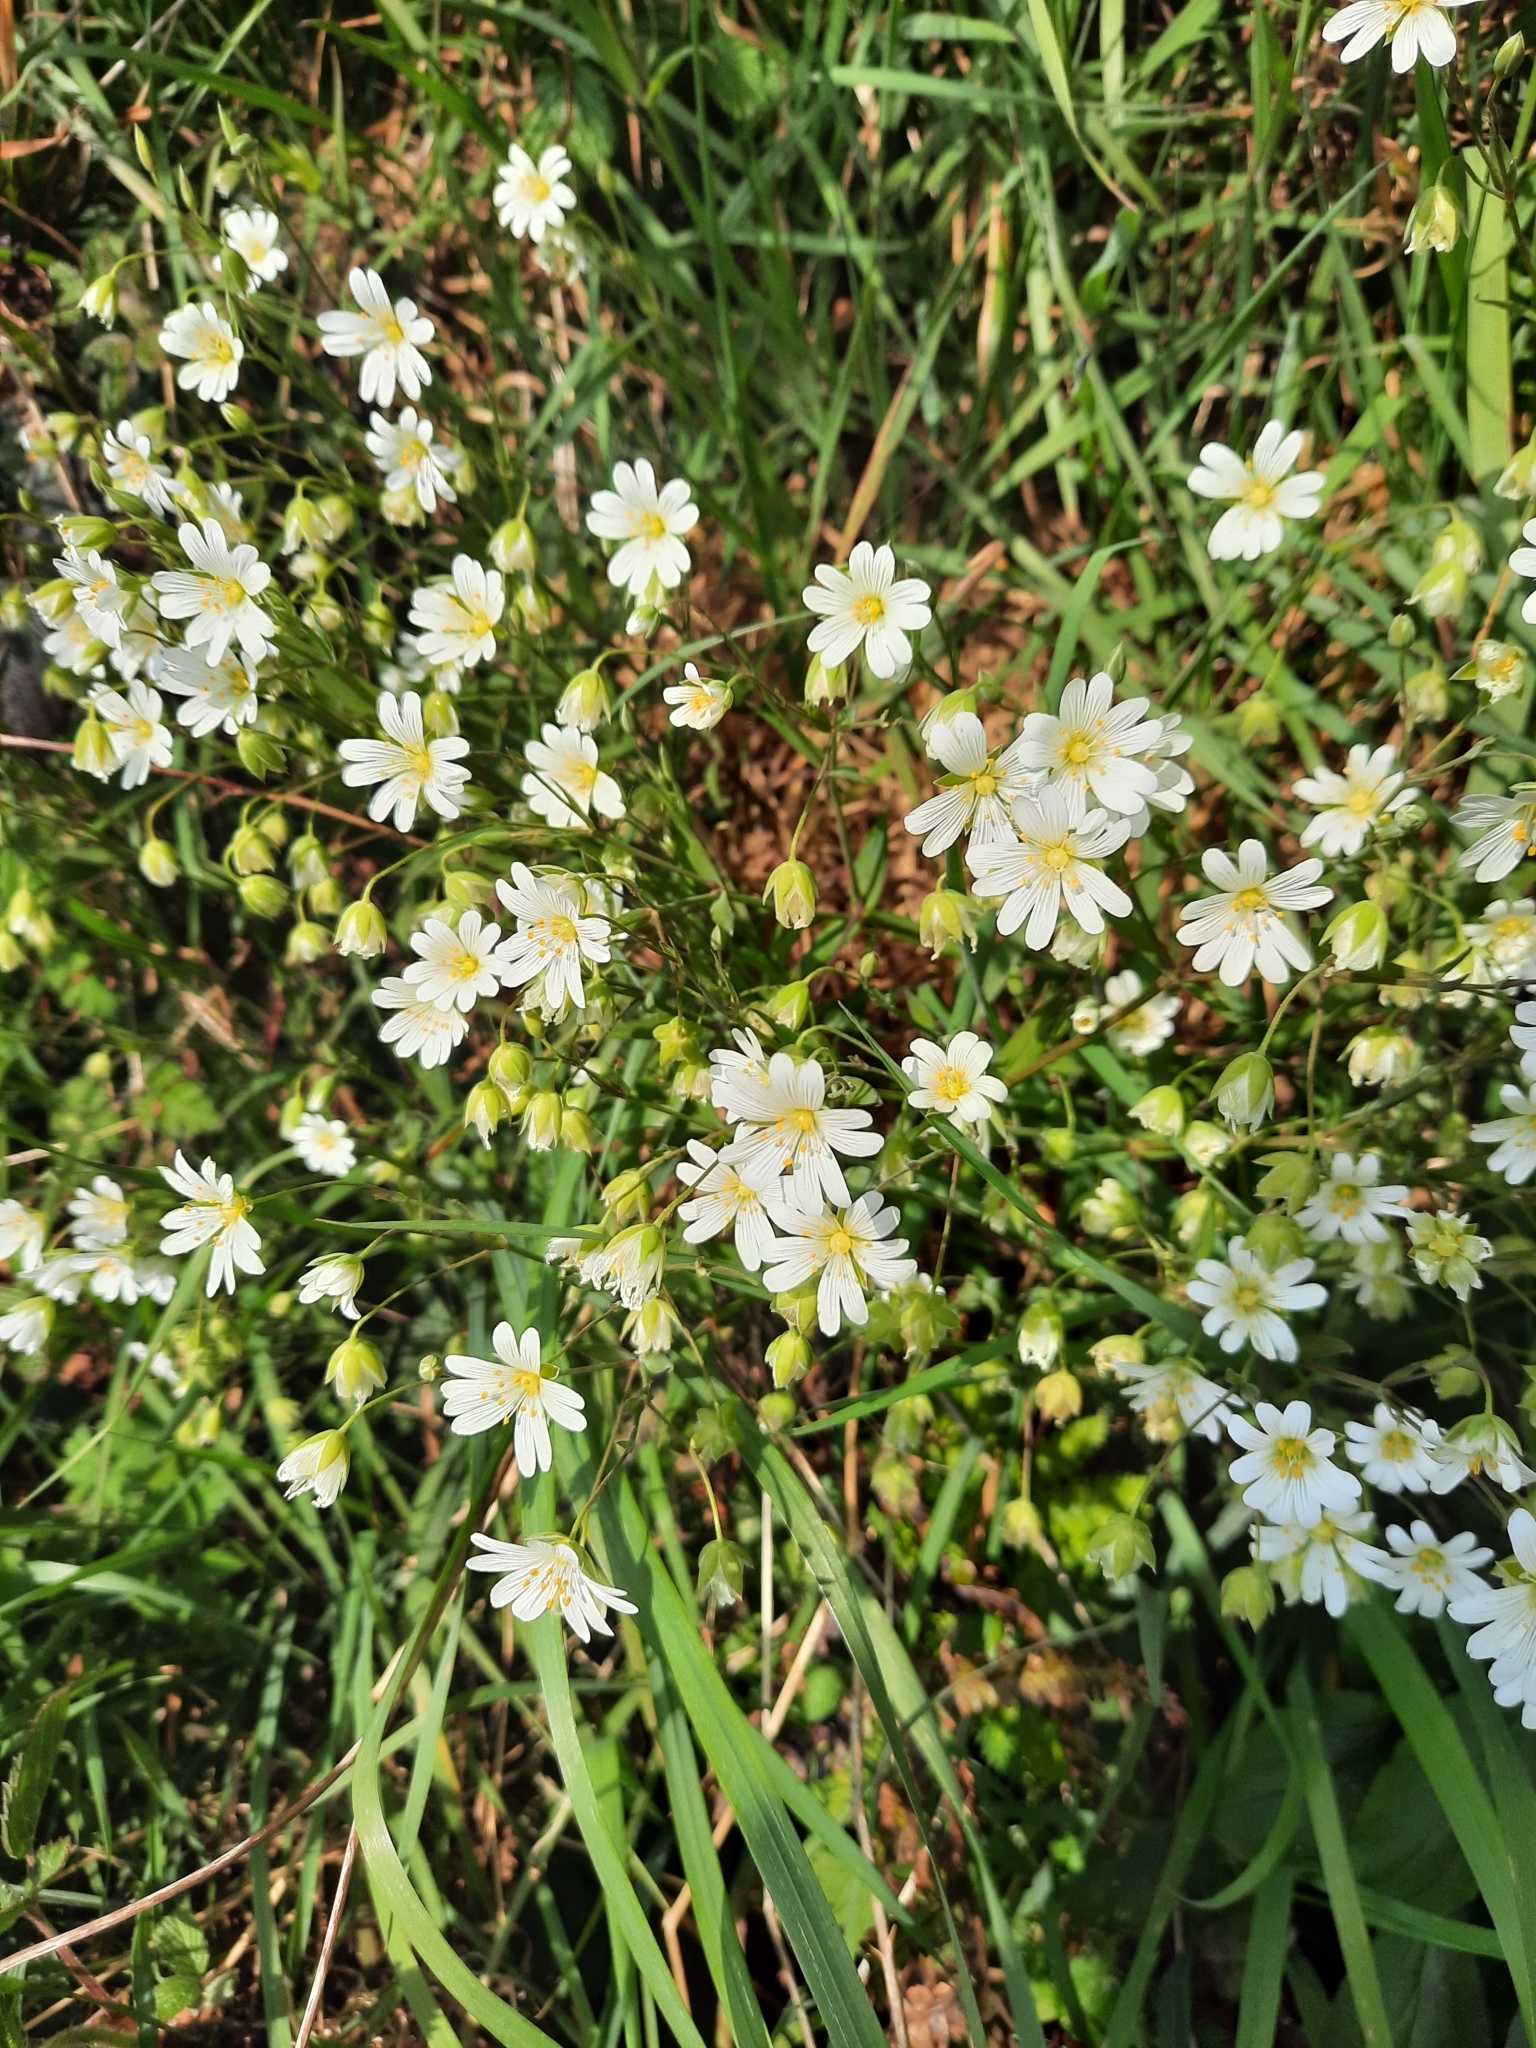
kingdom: Plantae
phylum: Tracheophyta
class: Magnoliopsida
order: Caryophyllales
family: Caryophyllaceae
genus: Rabelera
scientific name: Rabelera holostea
